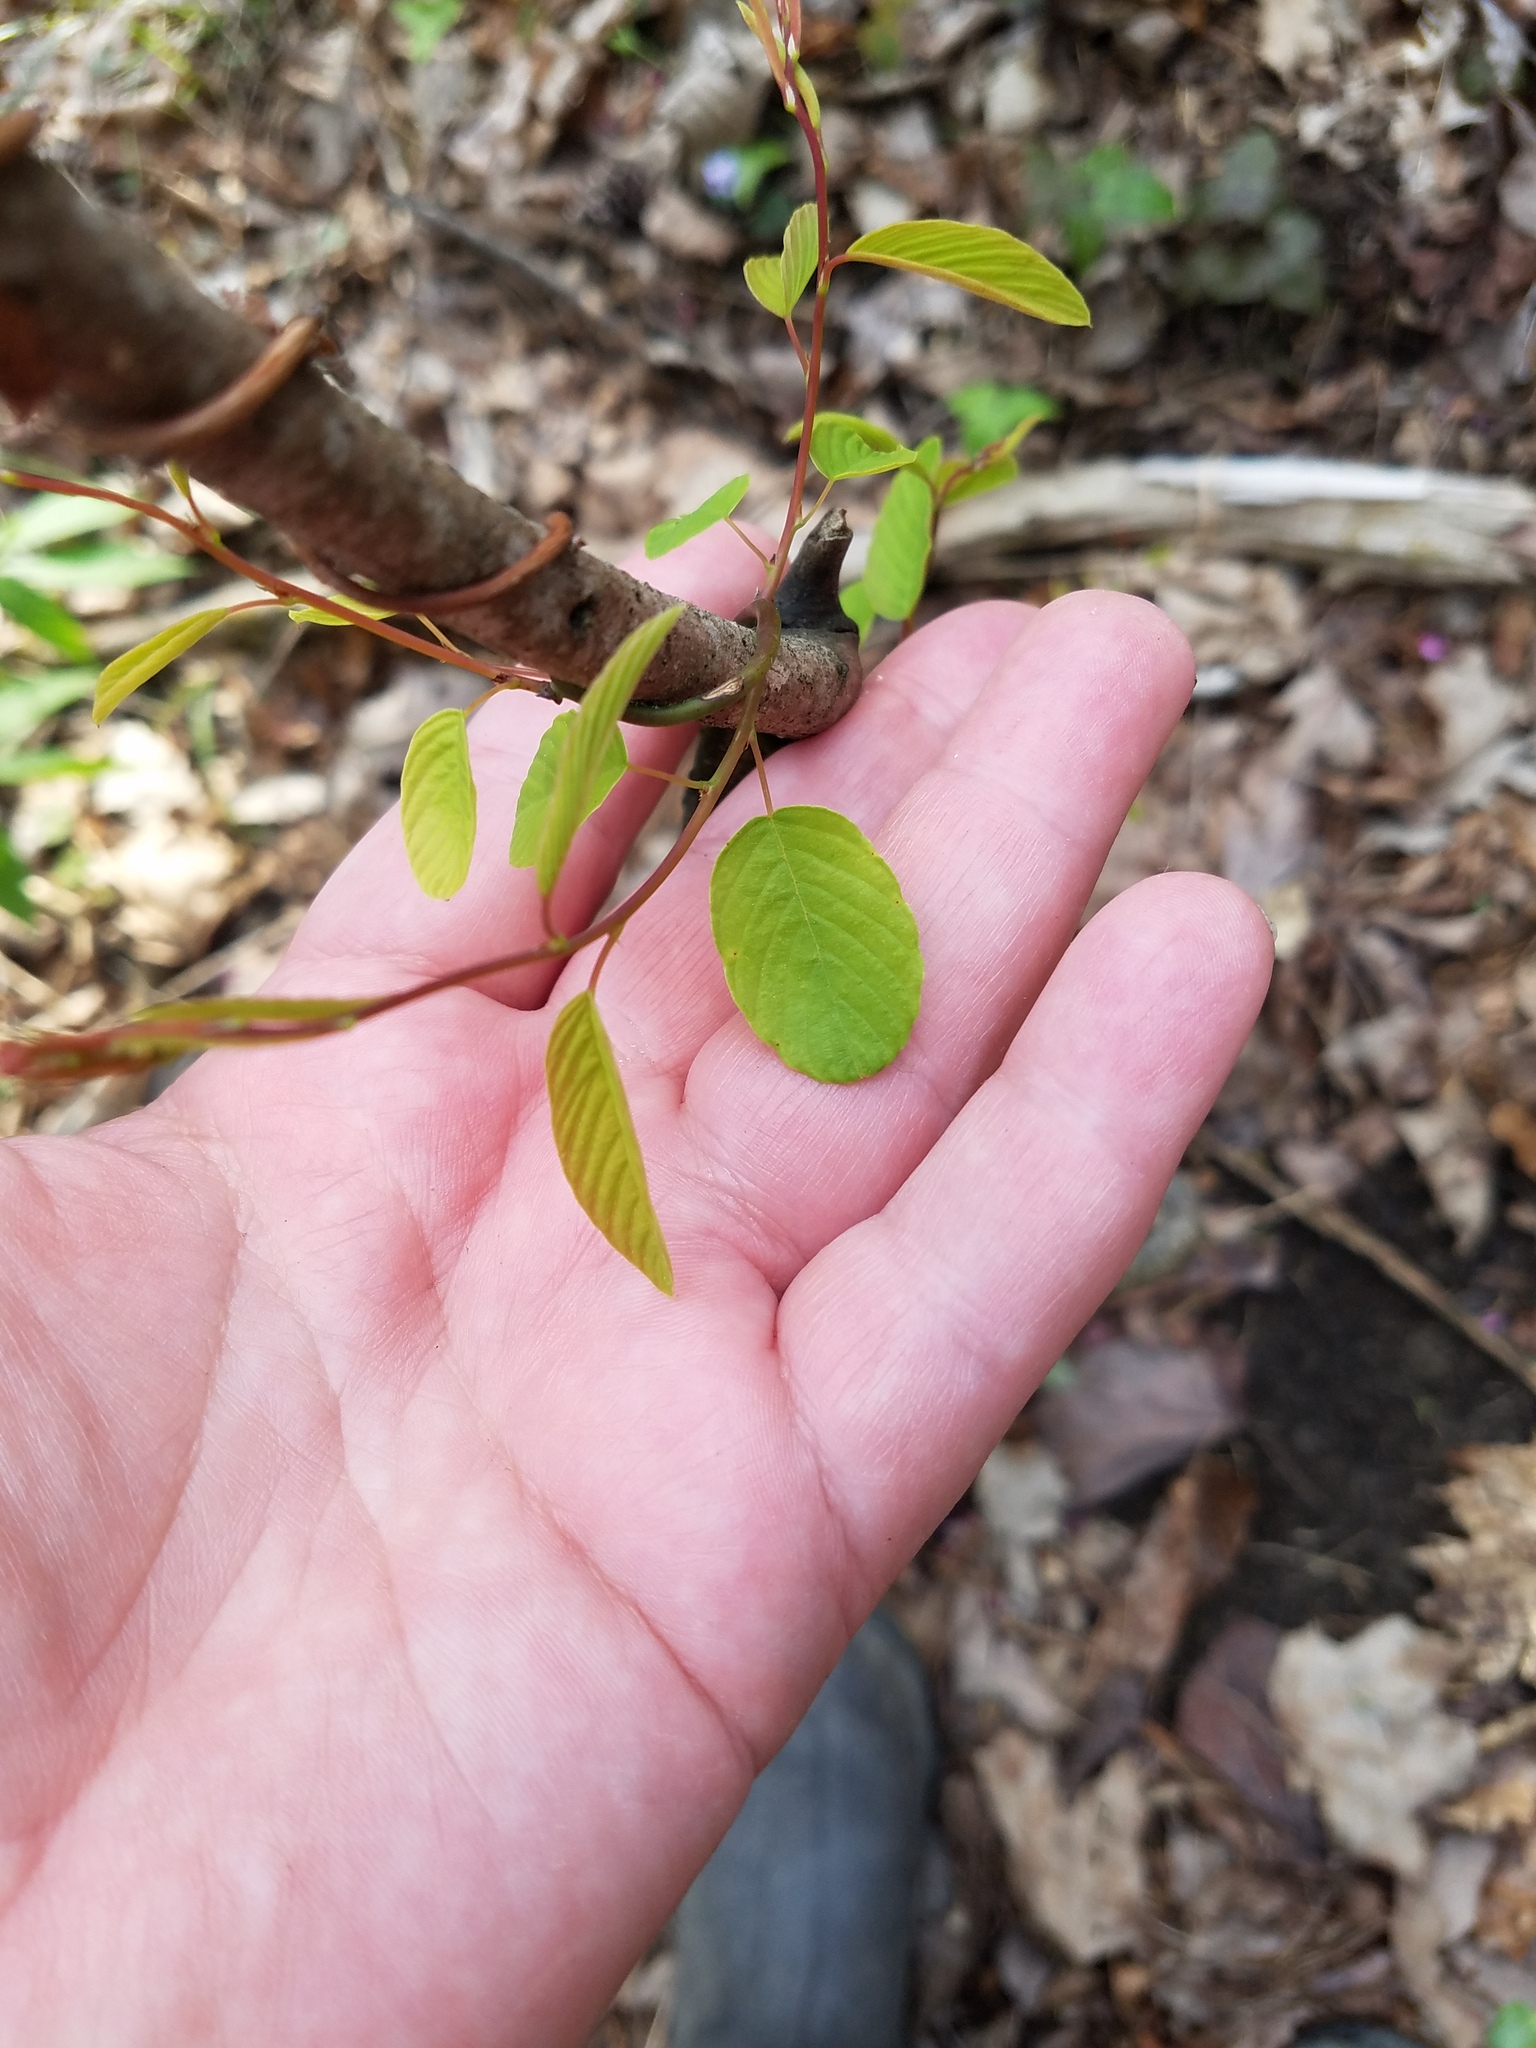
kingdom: Plantae
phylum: Tracheophyta
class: Magnoliopsida
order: Rosales
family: Rhamnaceae
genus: Berchemia
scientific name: Berchemia scandens
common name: Supplejack
